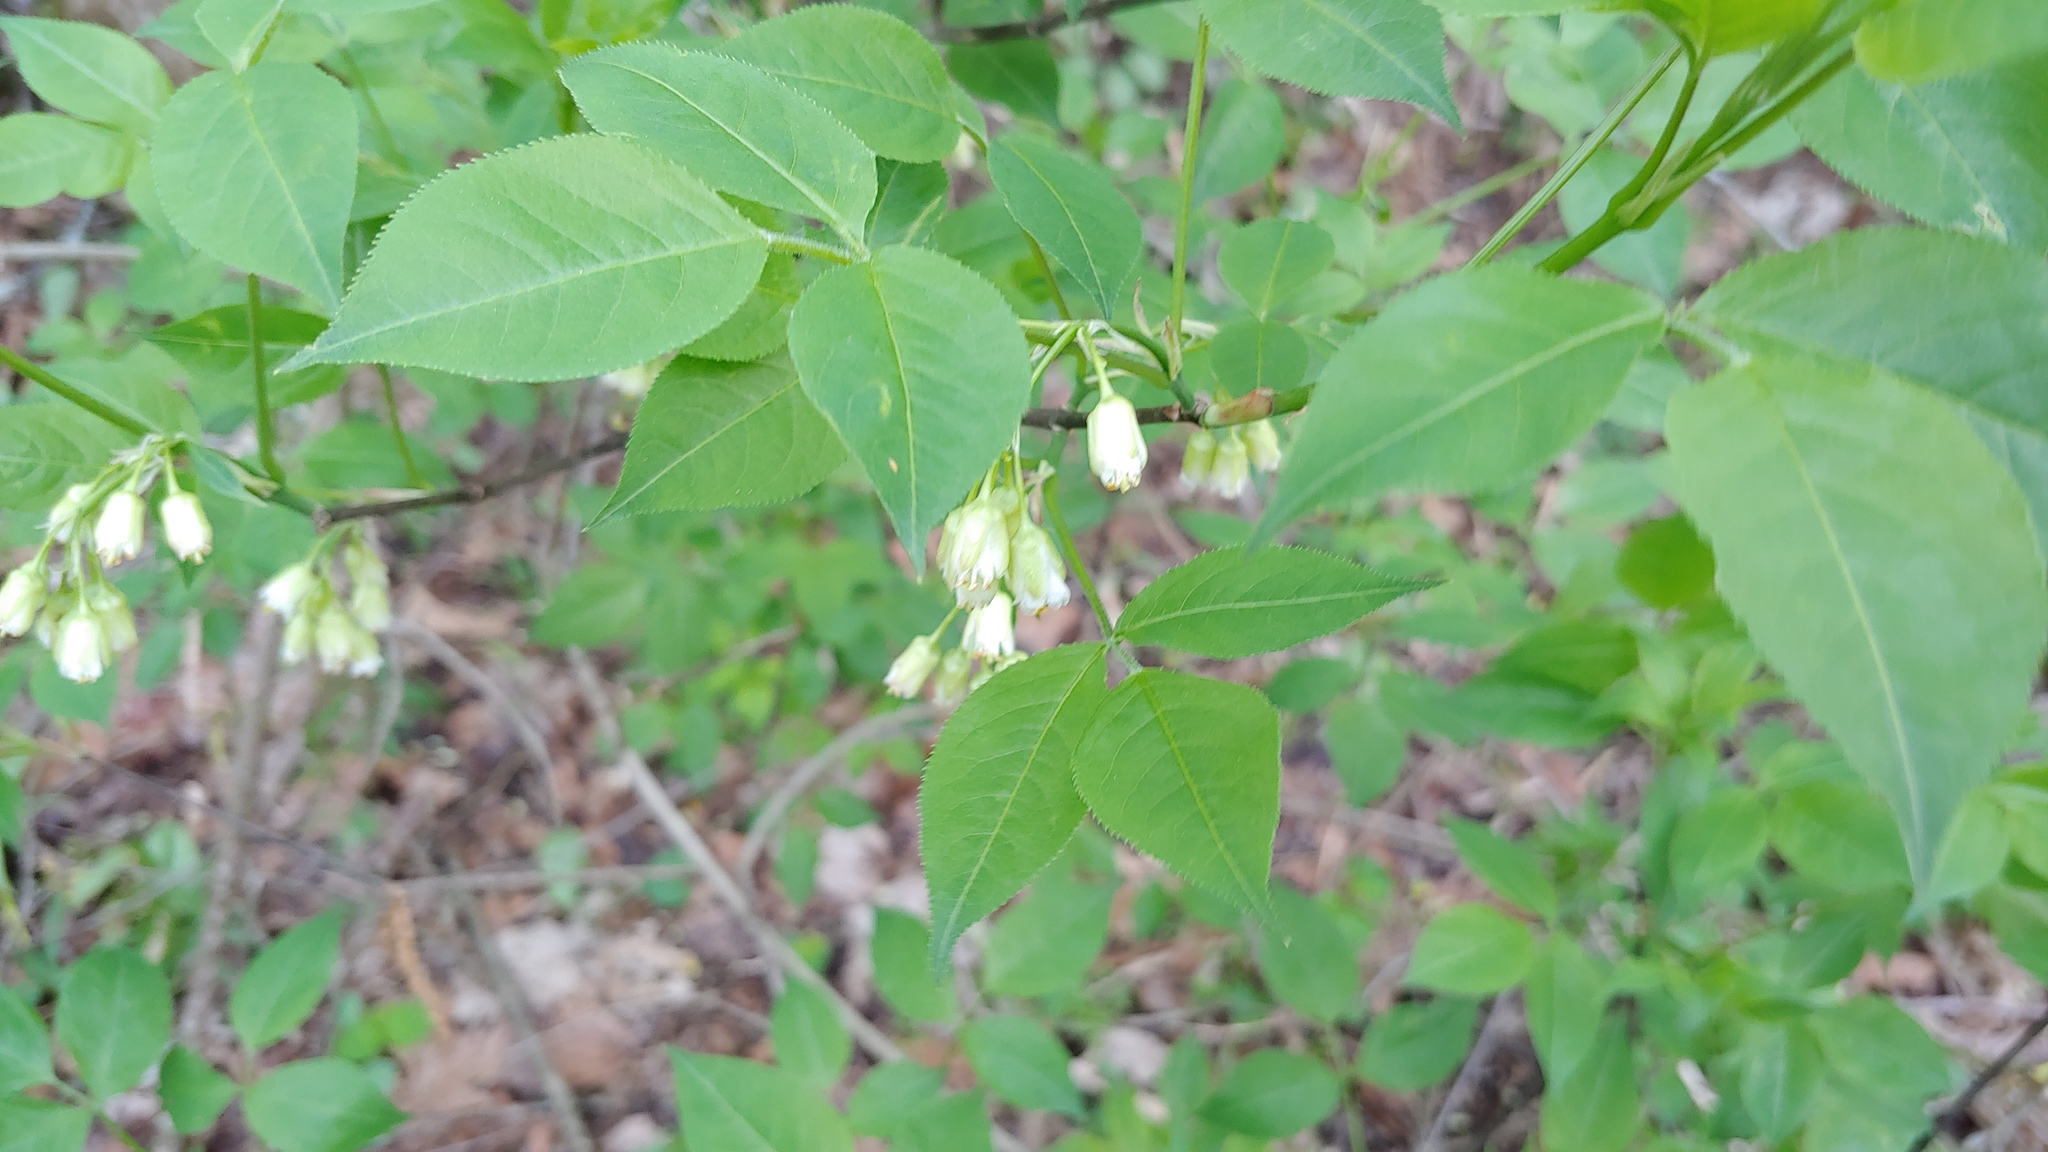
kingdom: Plantae
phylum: Tracheophyta
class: Magnoliopsida
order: Crossosomatales
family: Staphyleaceae
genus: Staphylea
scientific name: Staphylea trifolia
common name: American bladdernut
